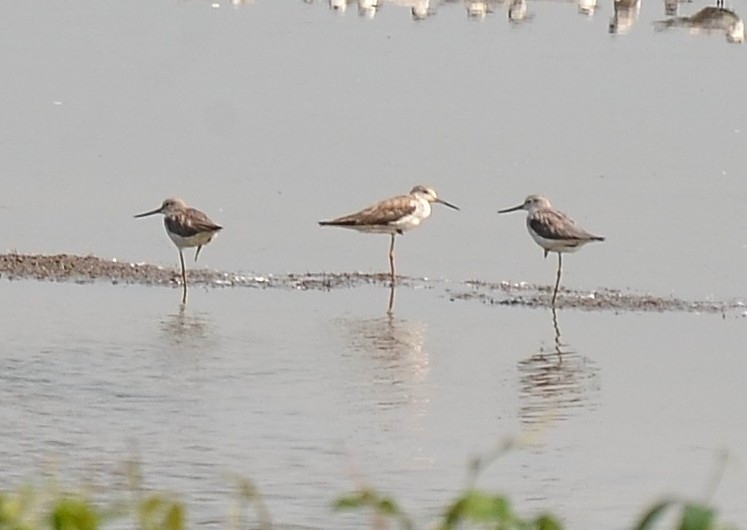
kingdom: Animalia
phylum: Chordata
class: Aves
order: Charadriiformes
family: Scolopacidae
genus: Tringa
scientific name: Tringa stagnatilis
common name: Marsh sandpiper
